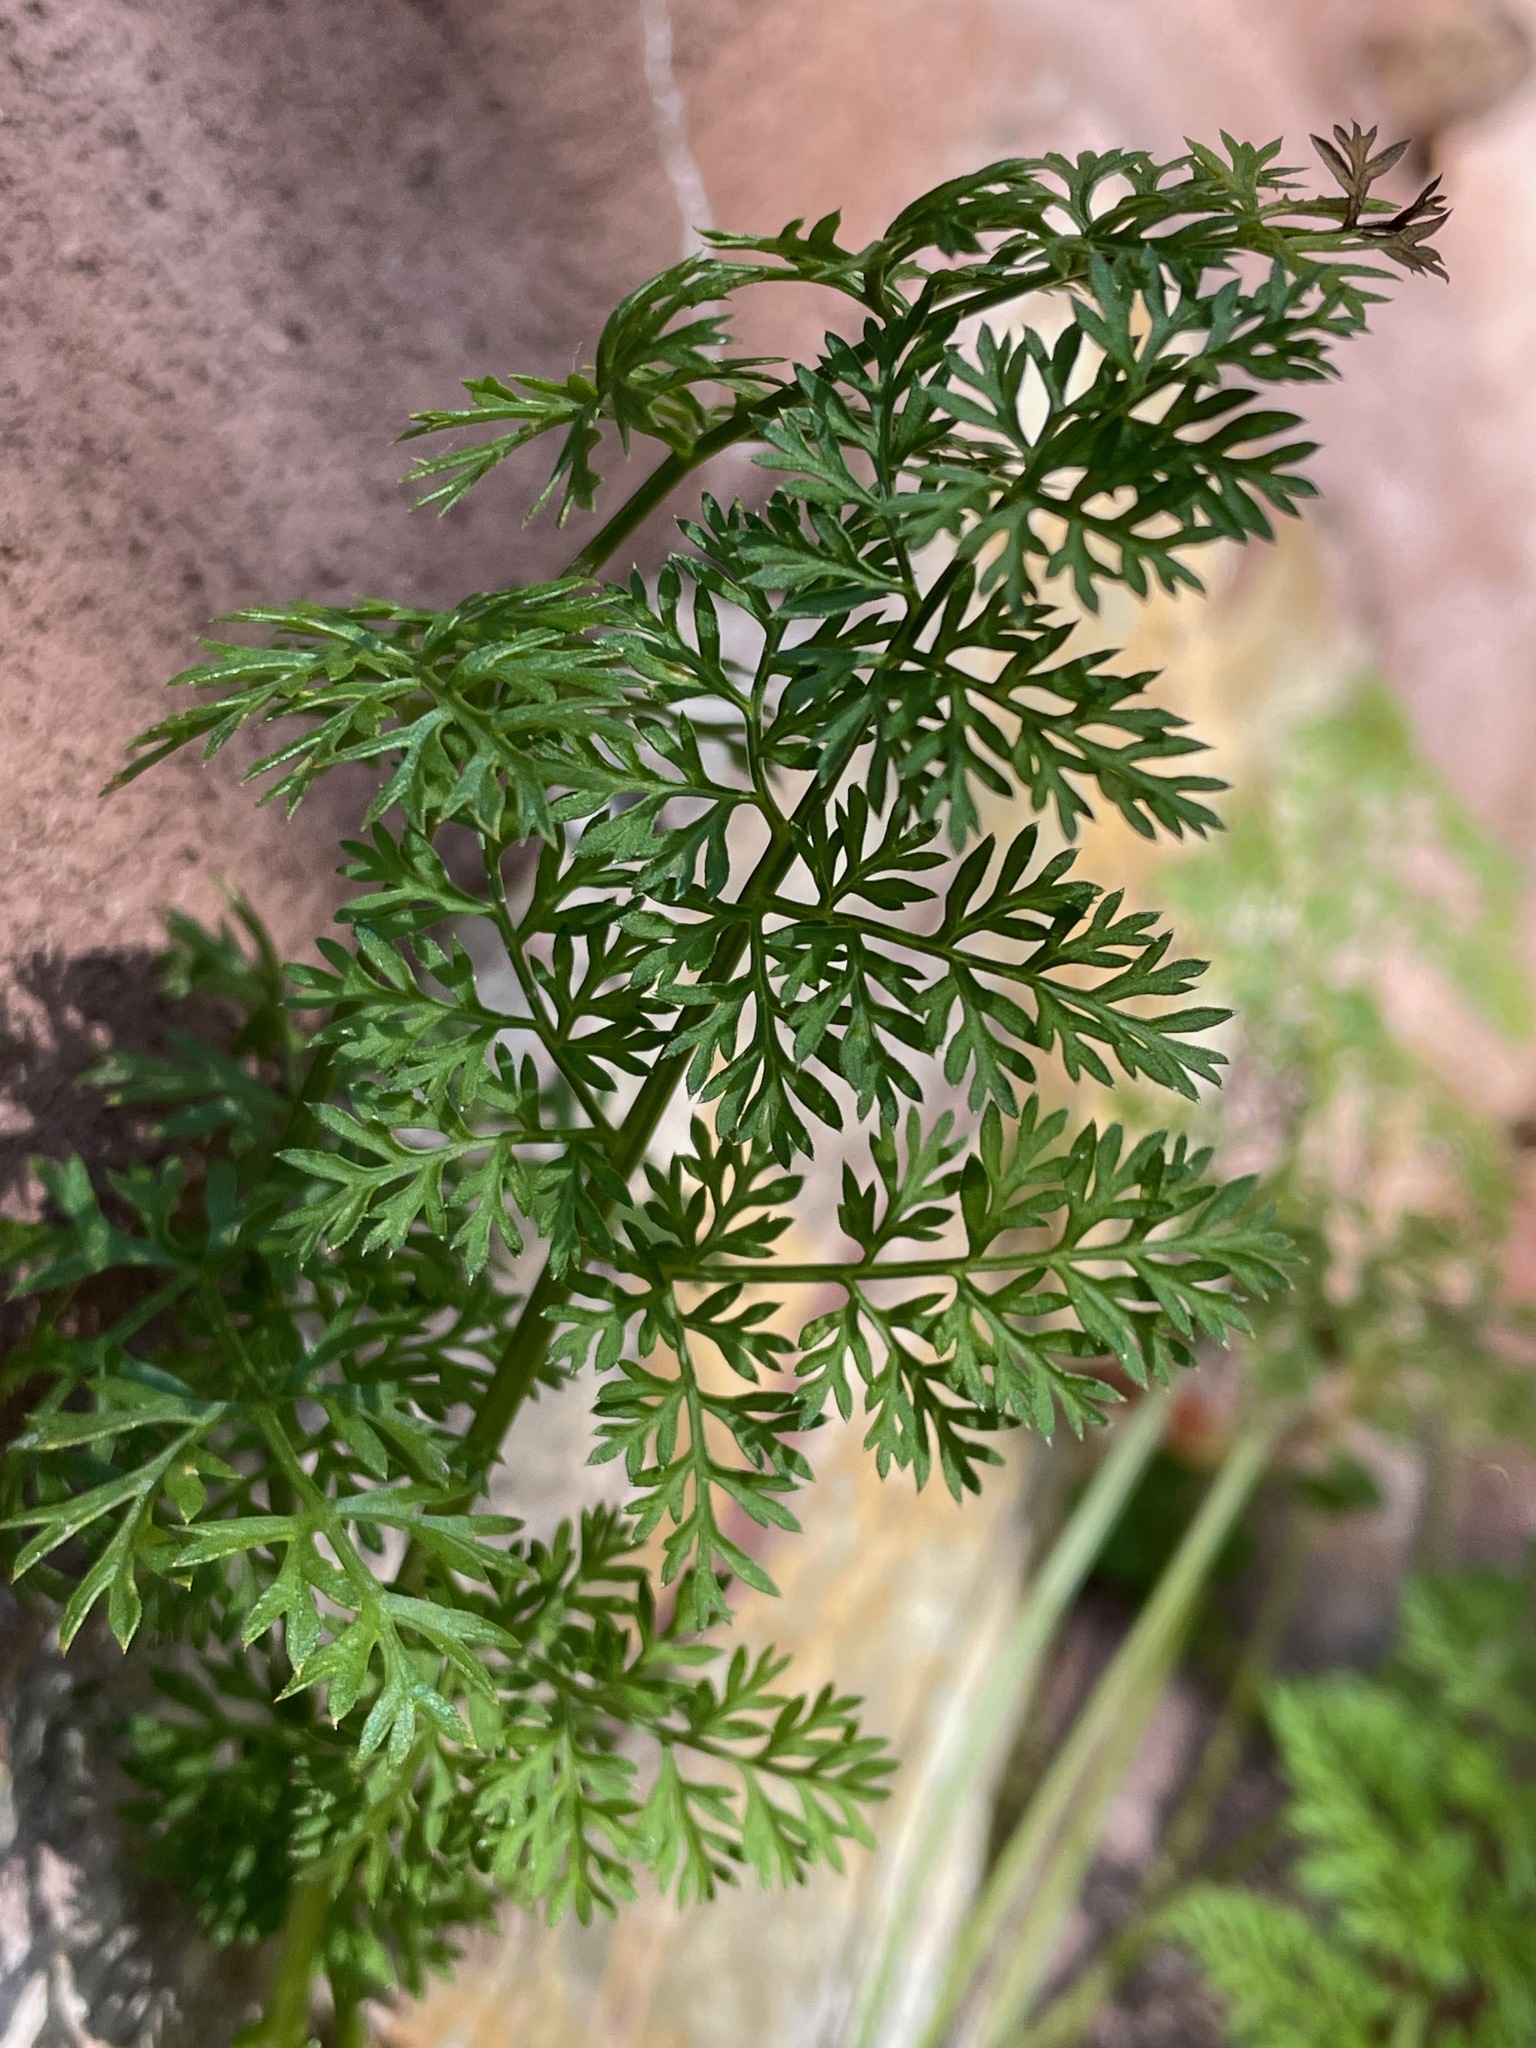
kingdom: Plantae
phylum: Tracheophyta
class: Magnoliopsida
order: Apiales
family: Apiaceae
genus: Daucus
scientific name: Daucus carota
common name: Wild carrot
